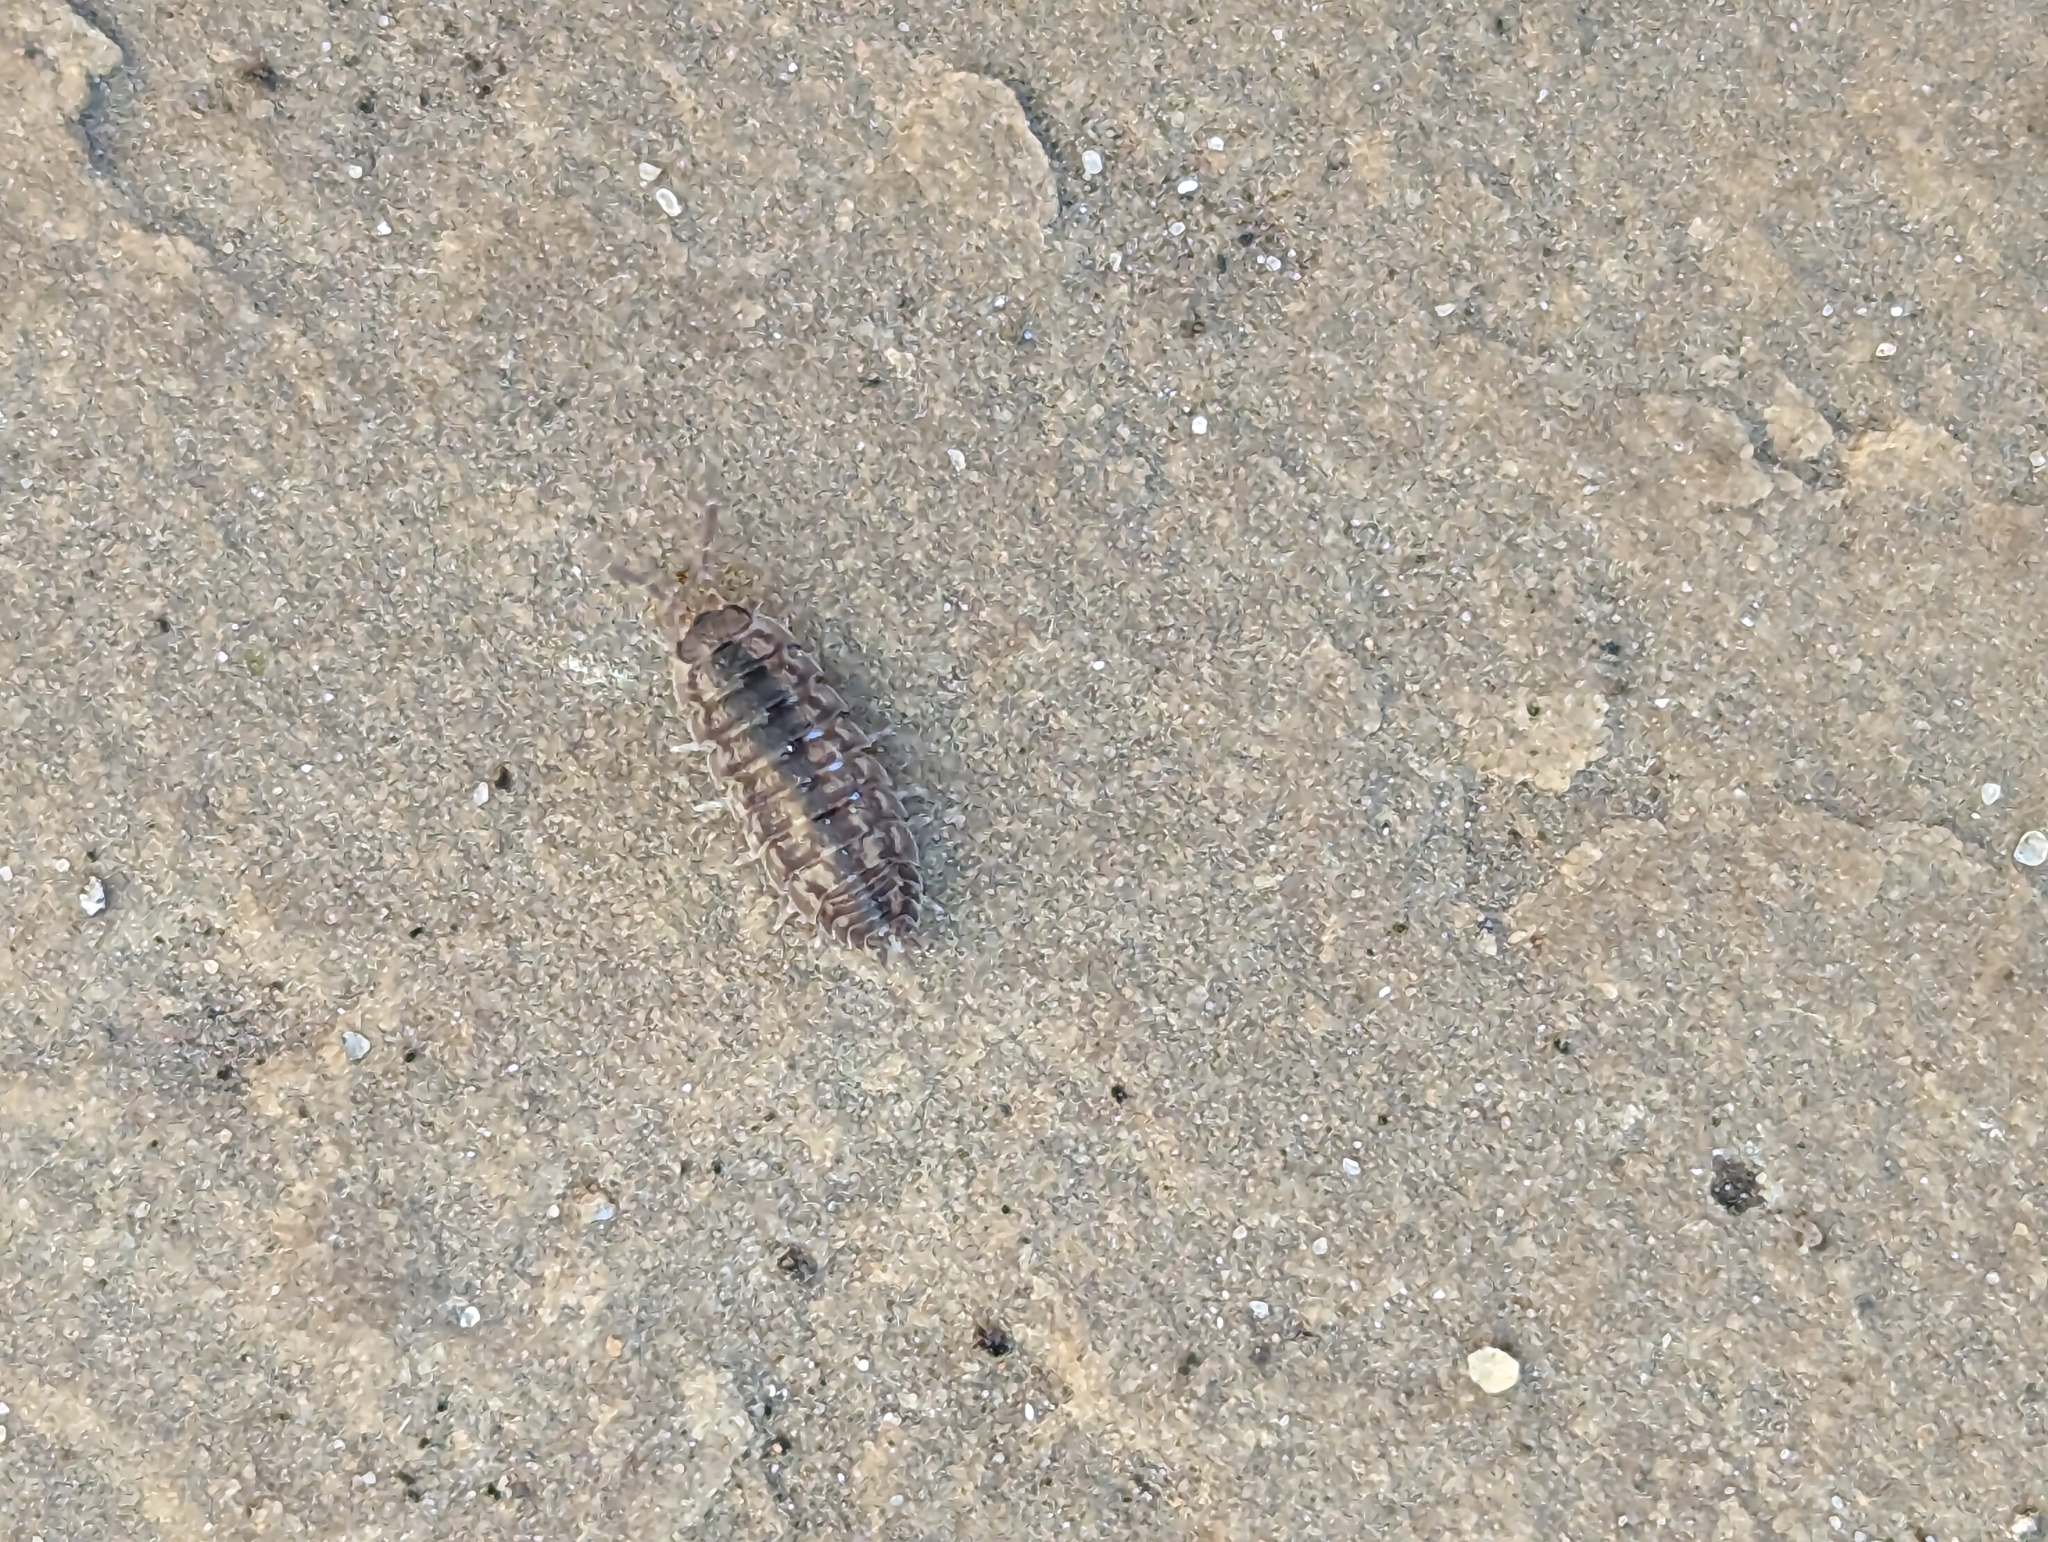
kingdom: Animalia
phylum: Arthropoda
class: Malacostraca
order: Isopoda
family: Porcellionidae
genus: Porcellio
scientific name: Porcellio scaber
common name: Common rough woodlouse
